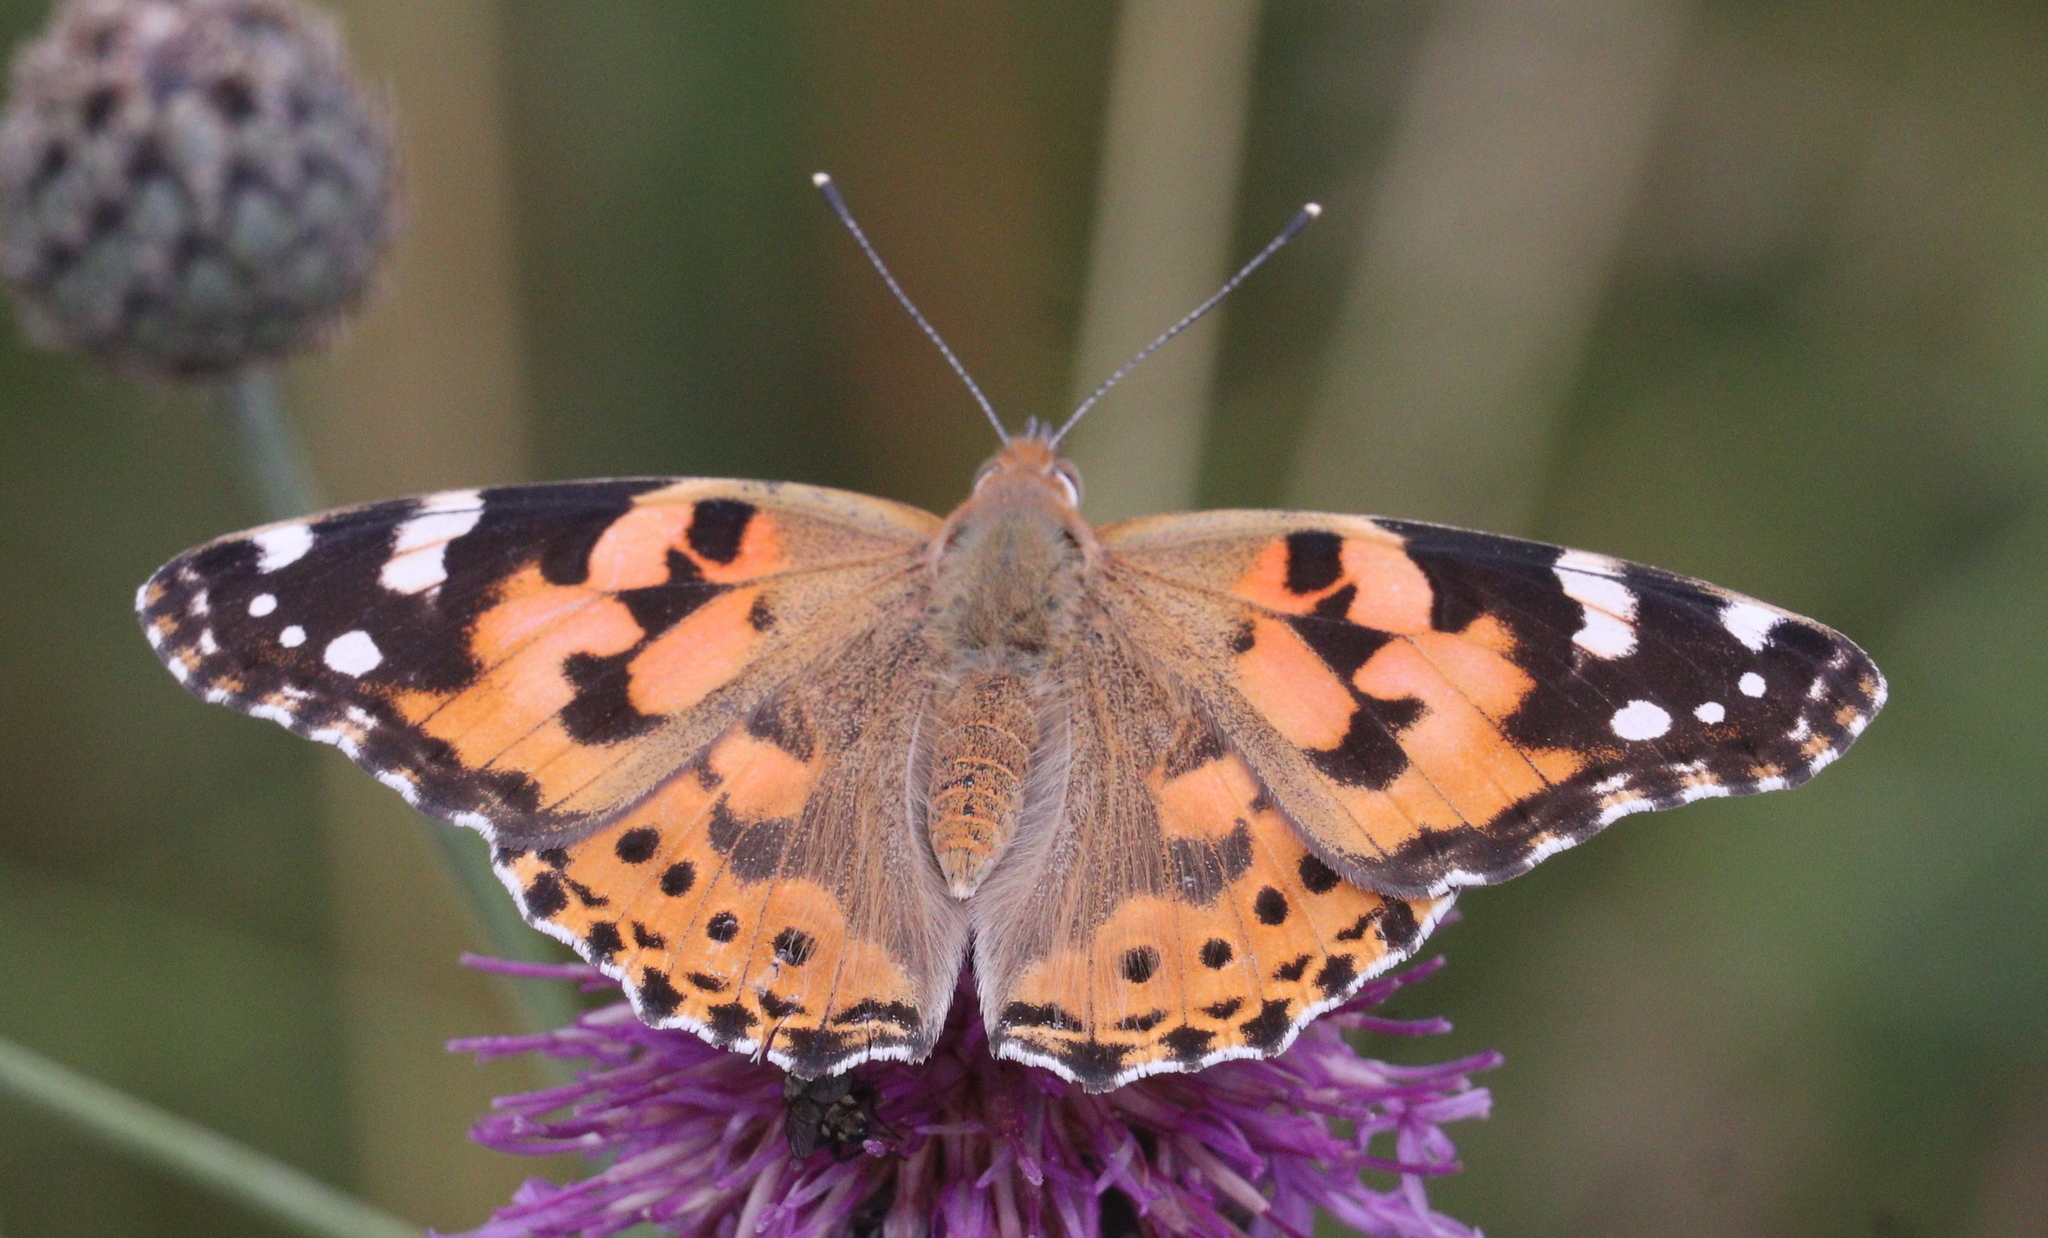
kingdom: Animalia
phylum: Arthropoda
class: Insecta
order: Lepidoptera
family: Nymphalidae
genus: Vanessa
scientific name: Vanessa cardui
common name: Painted lady
